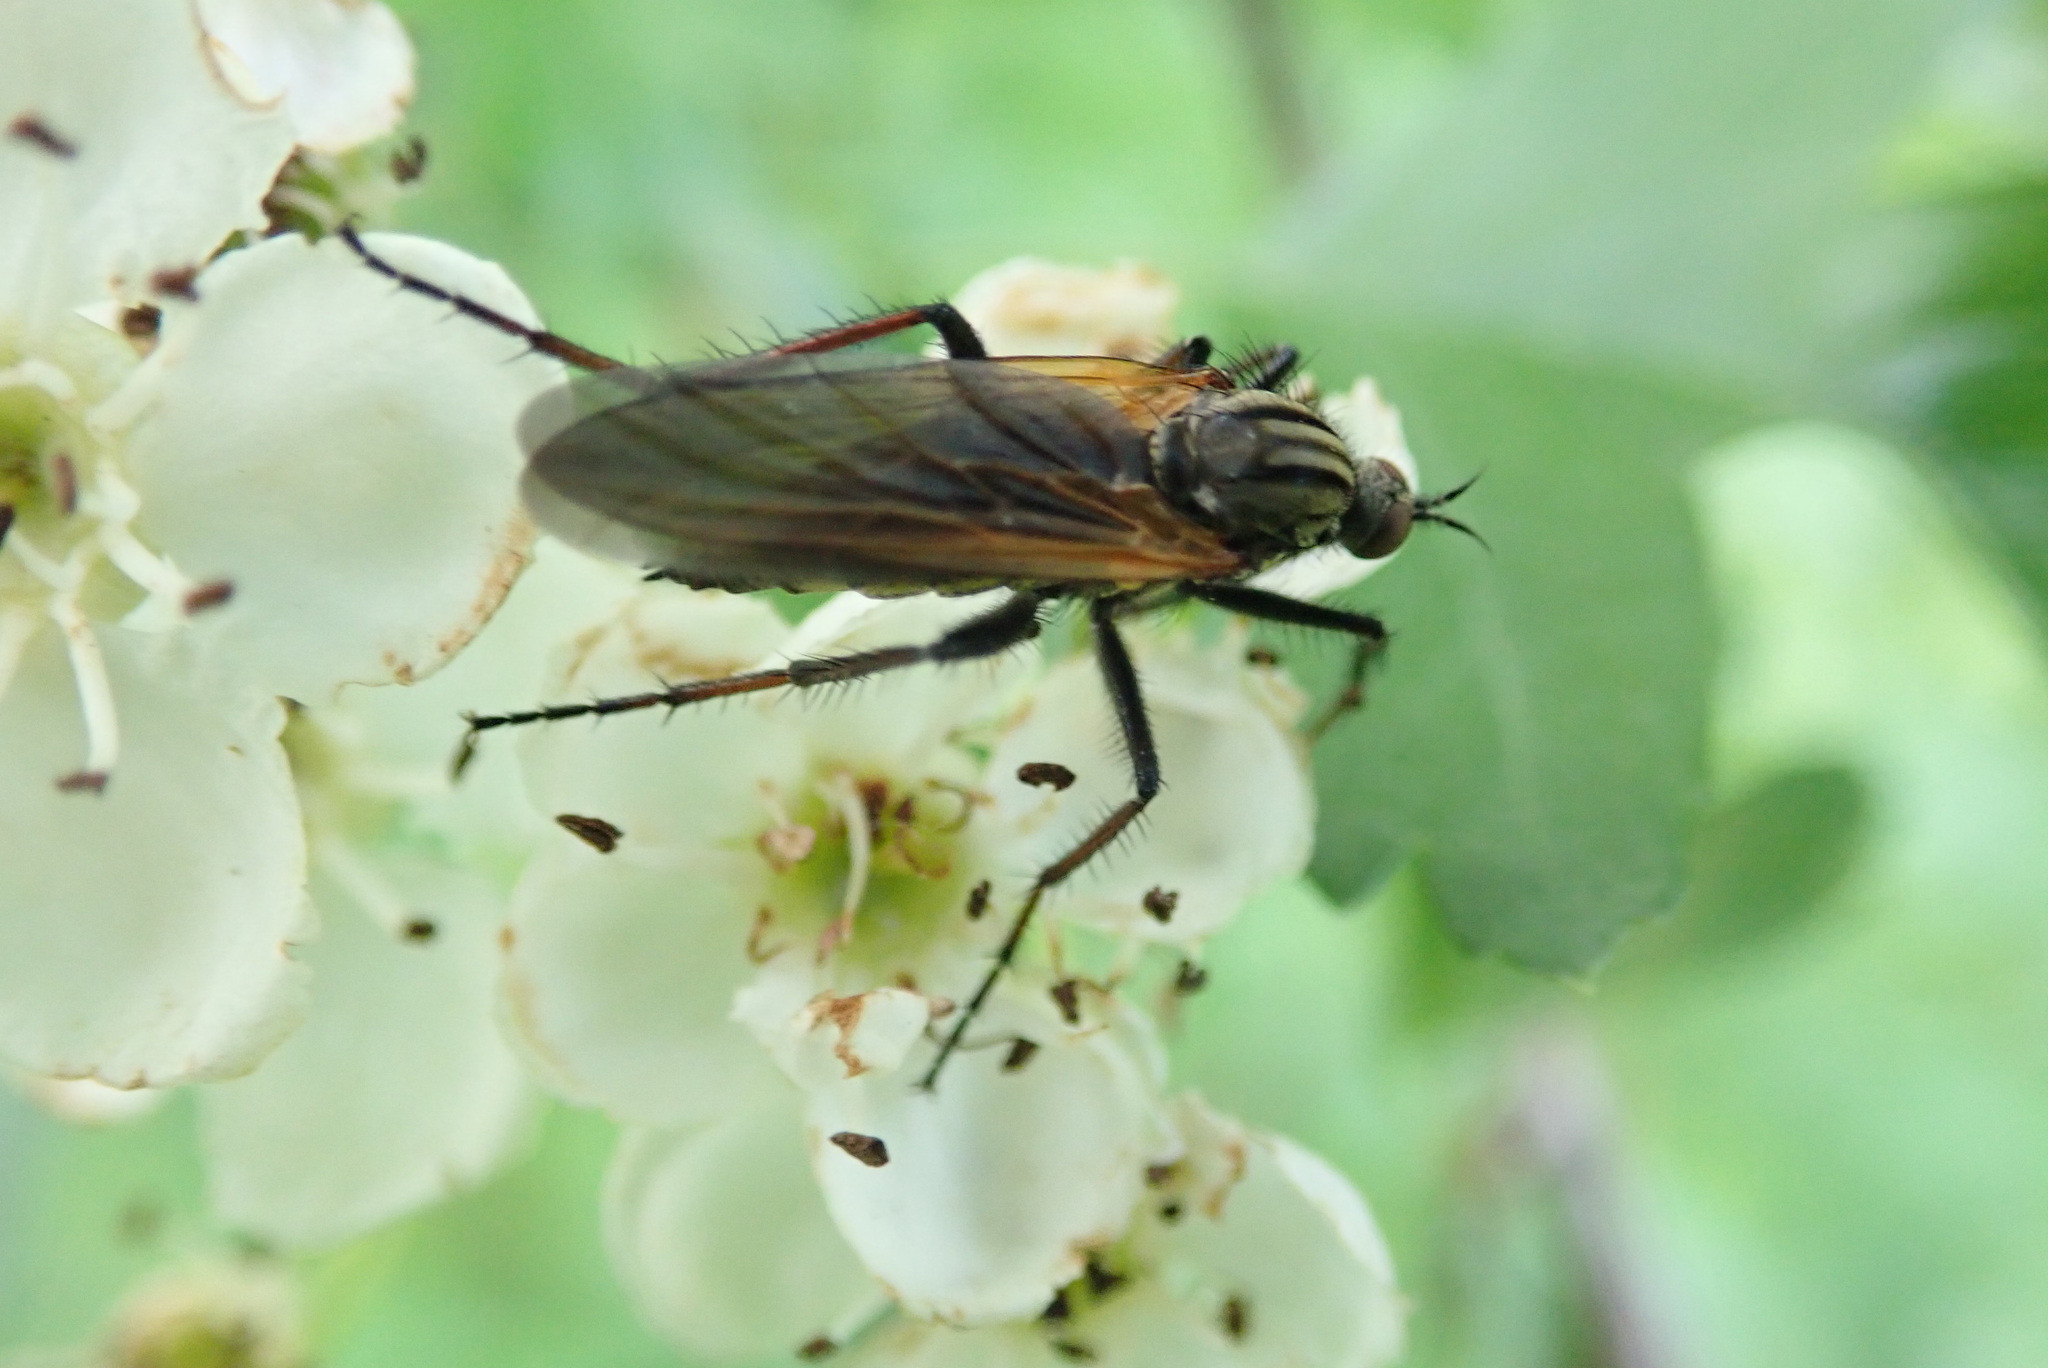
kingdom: Animalia
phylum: Arthropoda
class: Insecta
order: Diptera
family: Empididae
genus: Empis
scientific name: Empis tessellata
